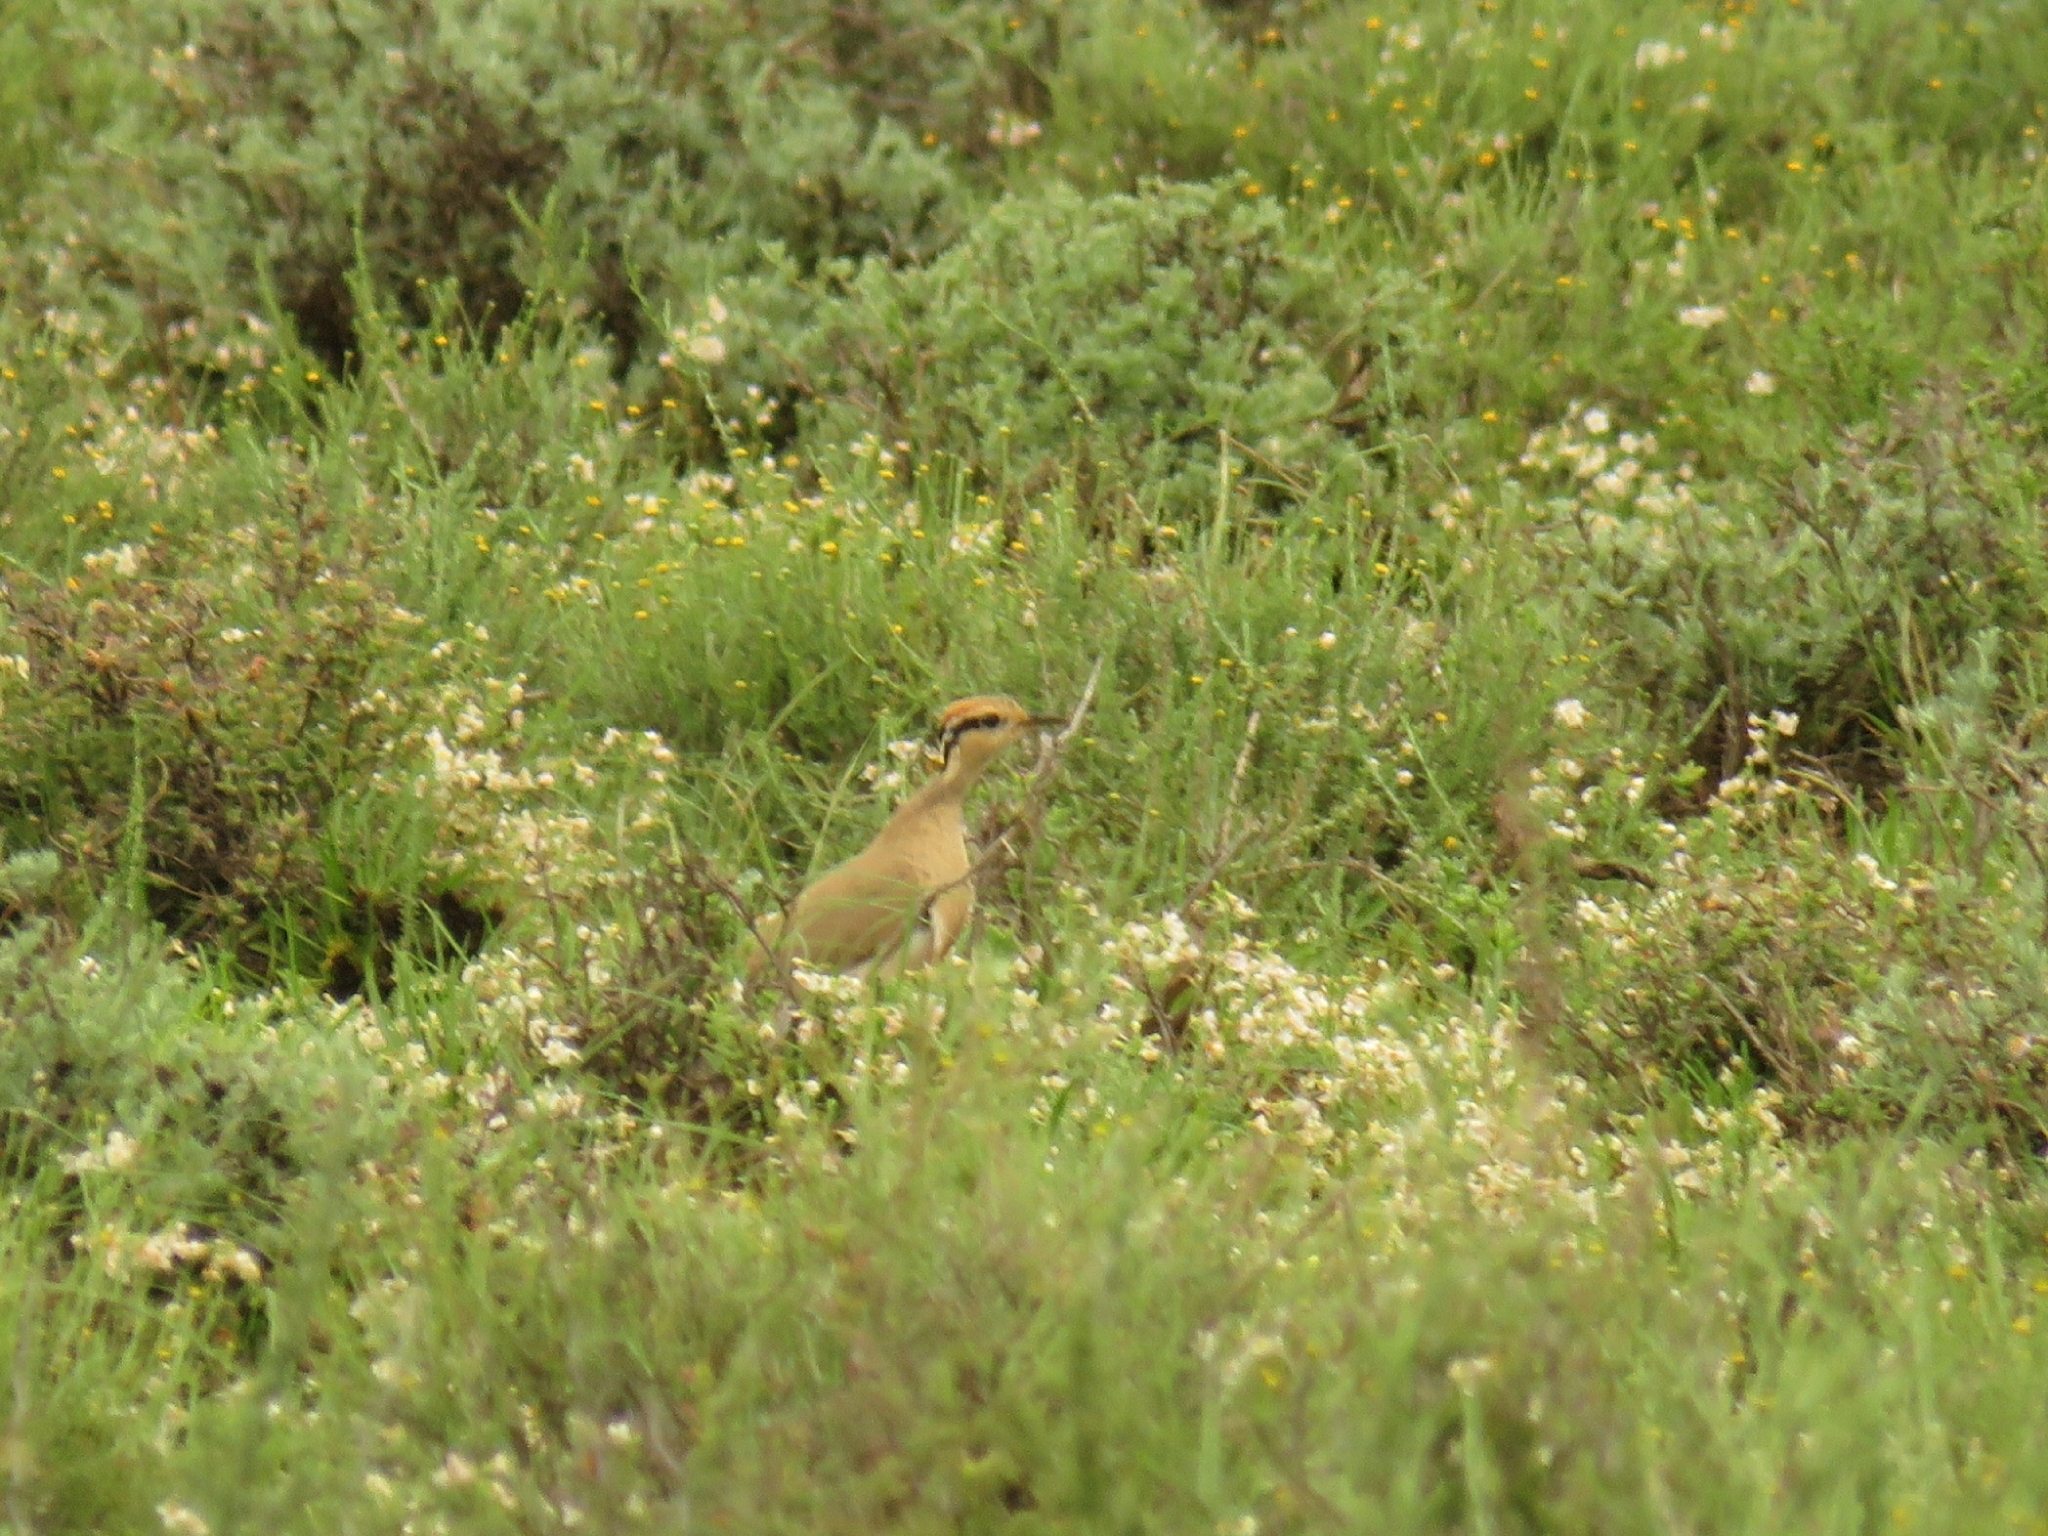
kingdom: Animalia
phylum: Chordata
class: Aves
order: Charadriiformes
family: Glareolidae
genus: Cursorius
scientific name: Cursorius temminckii
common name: Temminck's courser
